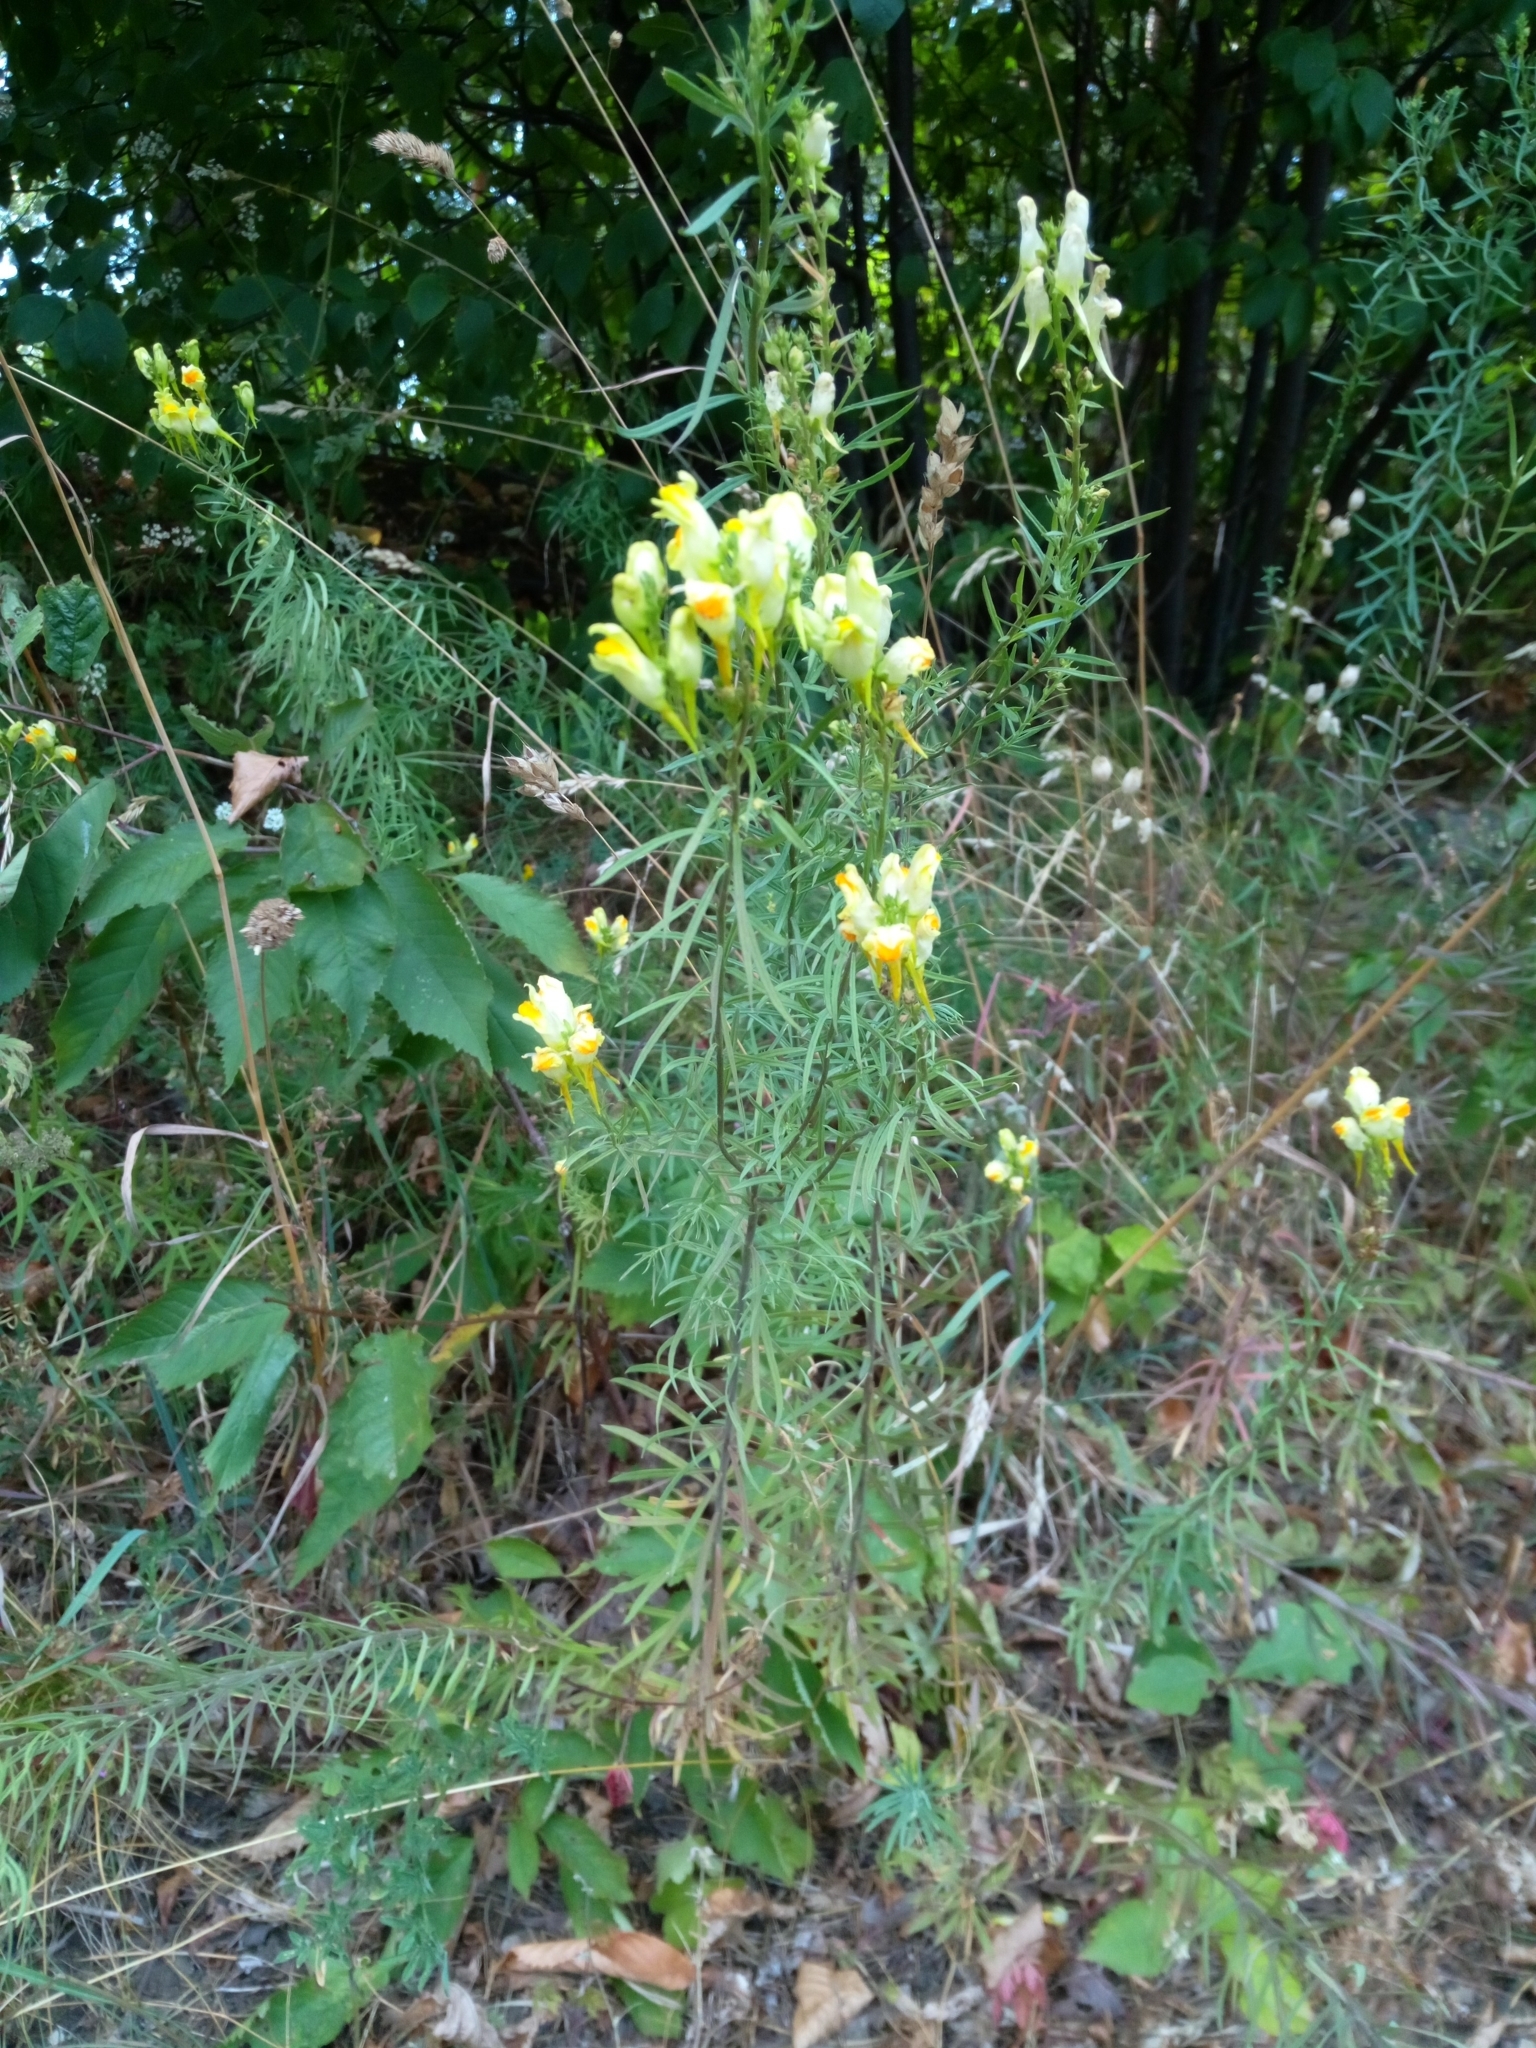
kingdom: Plantae
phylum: Tracheophyta
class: Magnoliopsida
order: Lamiales
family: Plantaginaceae
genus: Linaria
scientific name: Linaria vulgaris
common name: Butter and eggs
